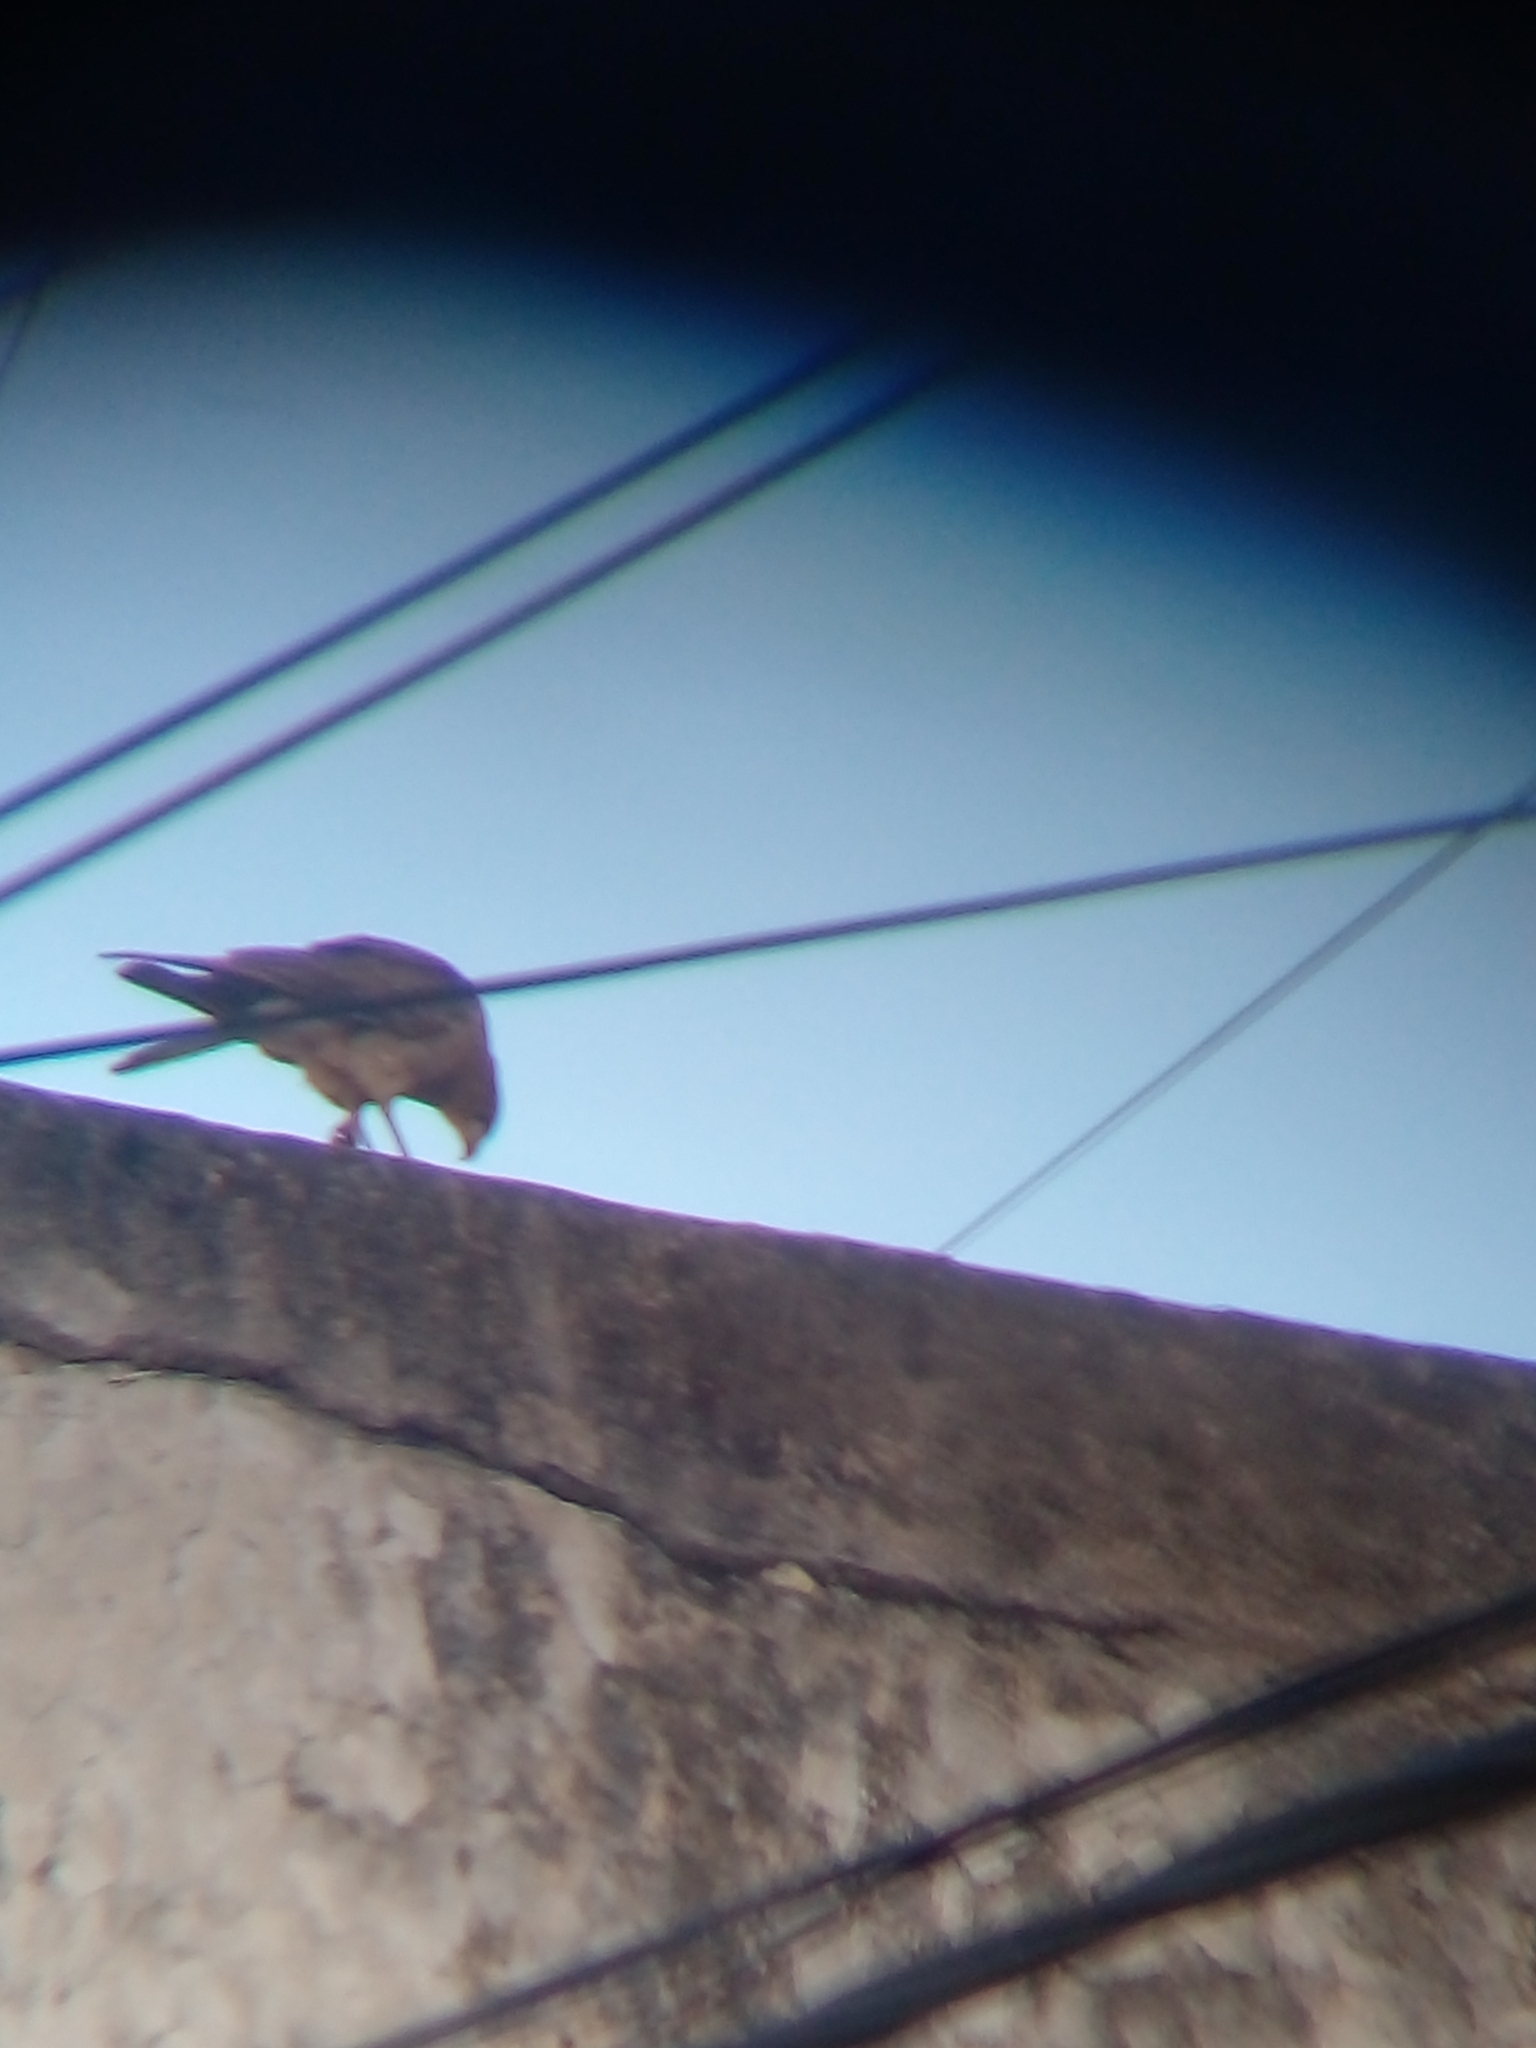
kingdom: Animalia
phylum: Chordata
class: Aves
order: Falconiformes
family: Falconidae
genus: Daptrius
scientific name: Daptrius
